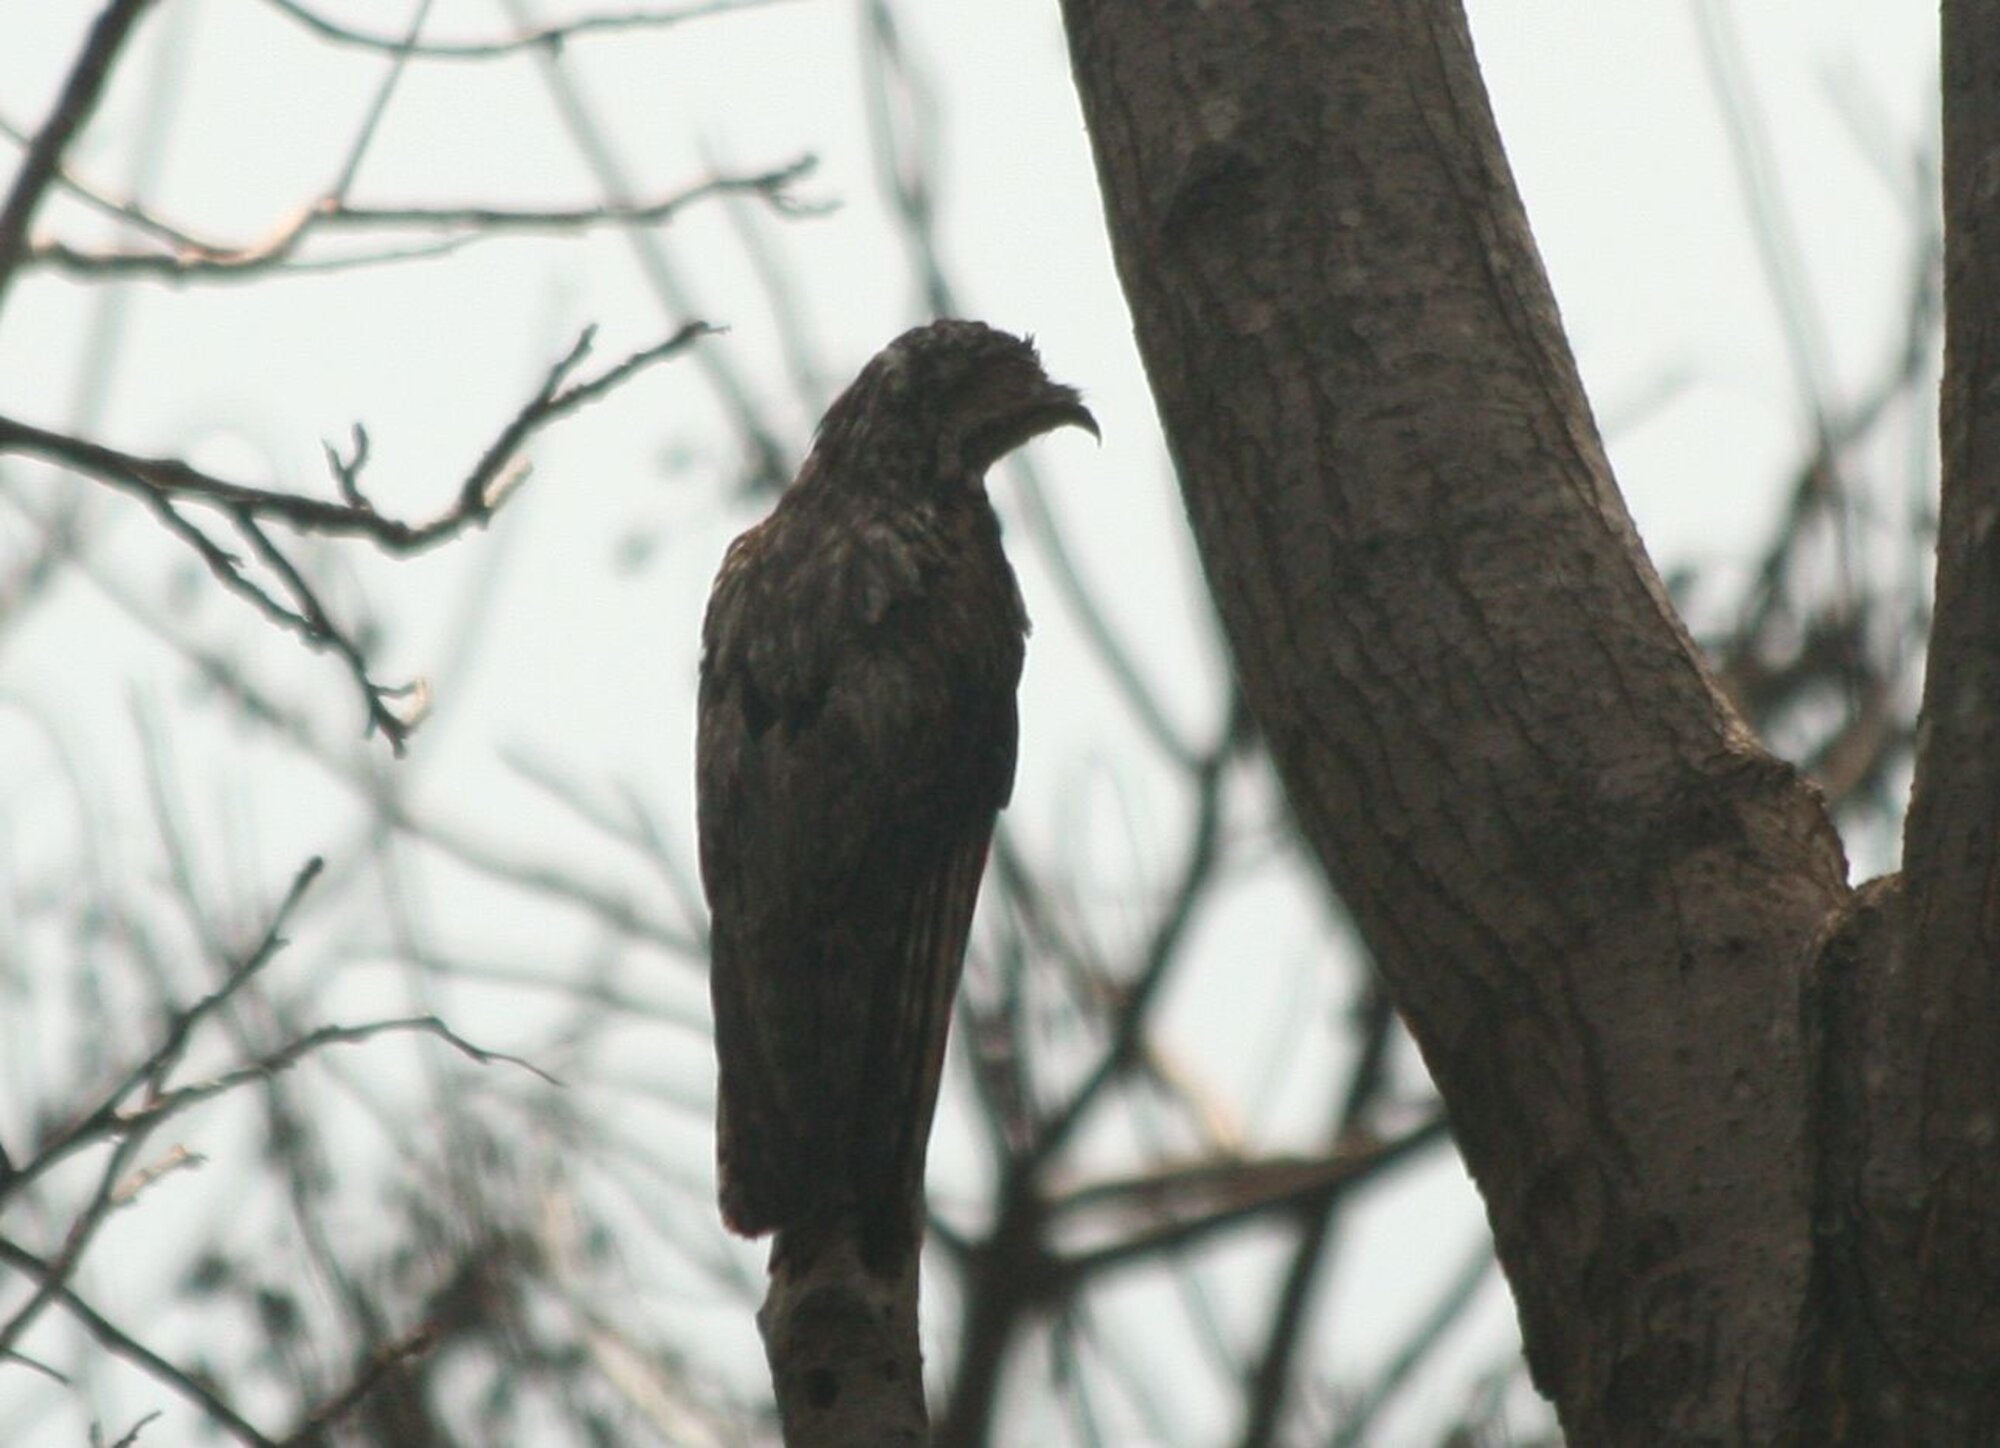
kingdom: Animalia
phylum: Chordata
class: Aves
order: Nyctibiiformes
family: Nyctibiidae
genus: Nyctibius
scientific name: Nyctibius jamaicensis
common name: Northern potoo
